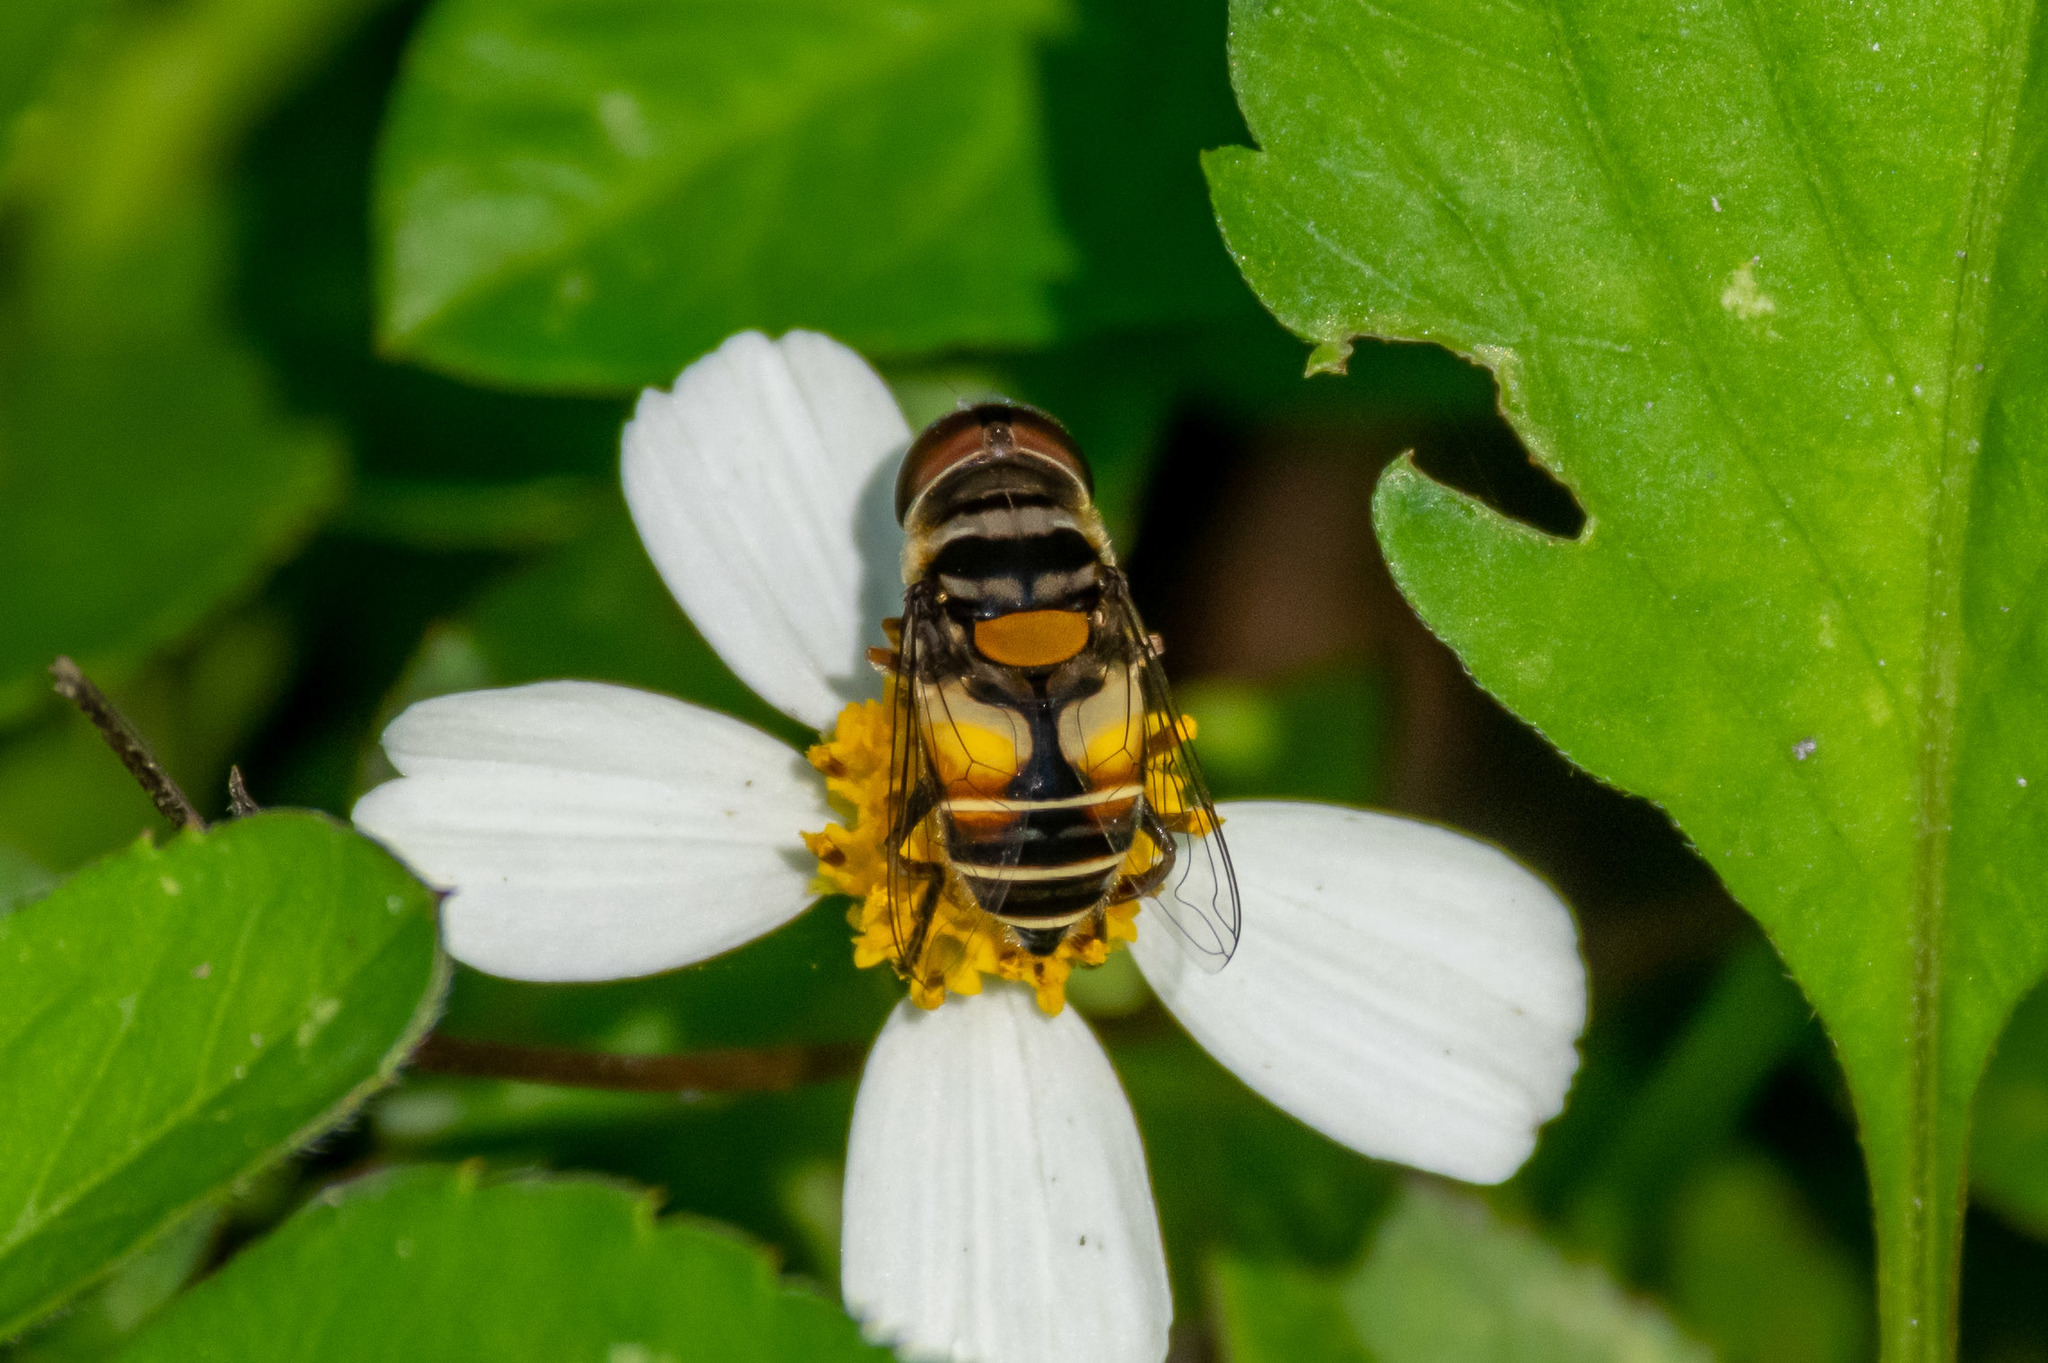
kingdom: Animalia
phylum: Arthropoda
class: Insecta
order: Diptera
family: Syrphidae
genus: Palpada
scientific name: Palpada albifrons
